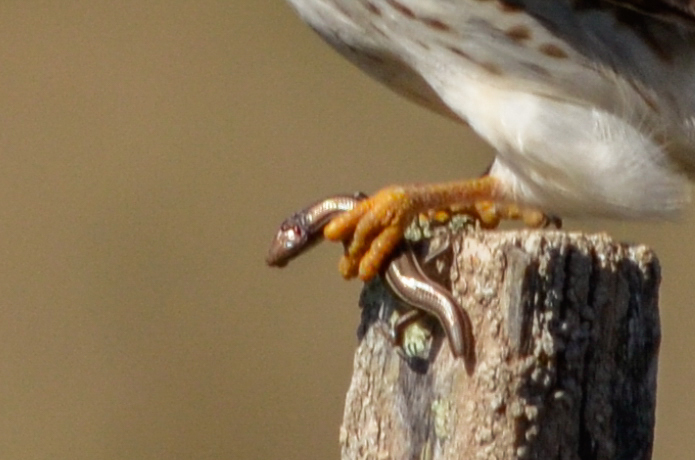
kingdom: Animalia
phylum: Chordata
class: Squamata
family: Scincidae
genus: Aspronema
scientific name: Aspronema dorsivittatum
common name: Paraguay mabuya
